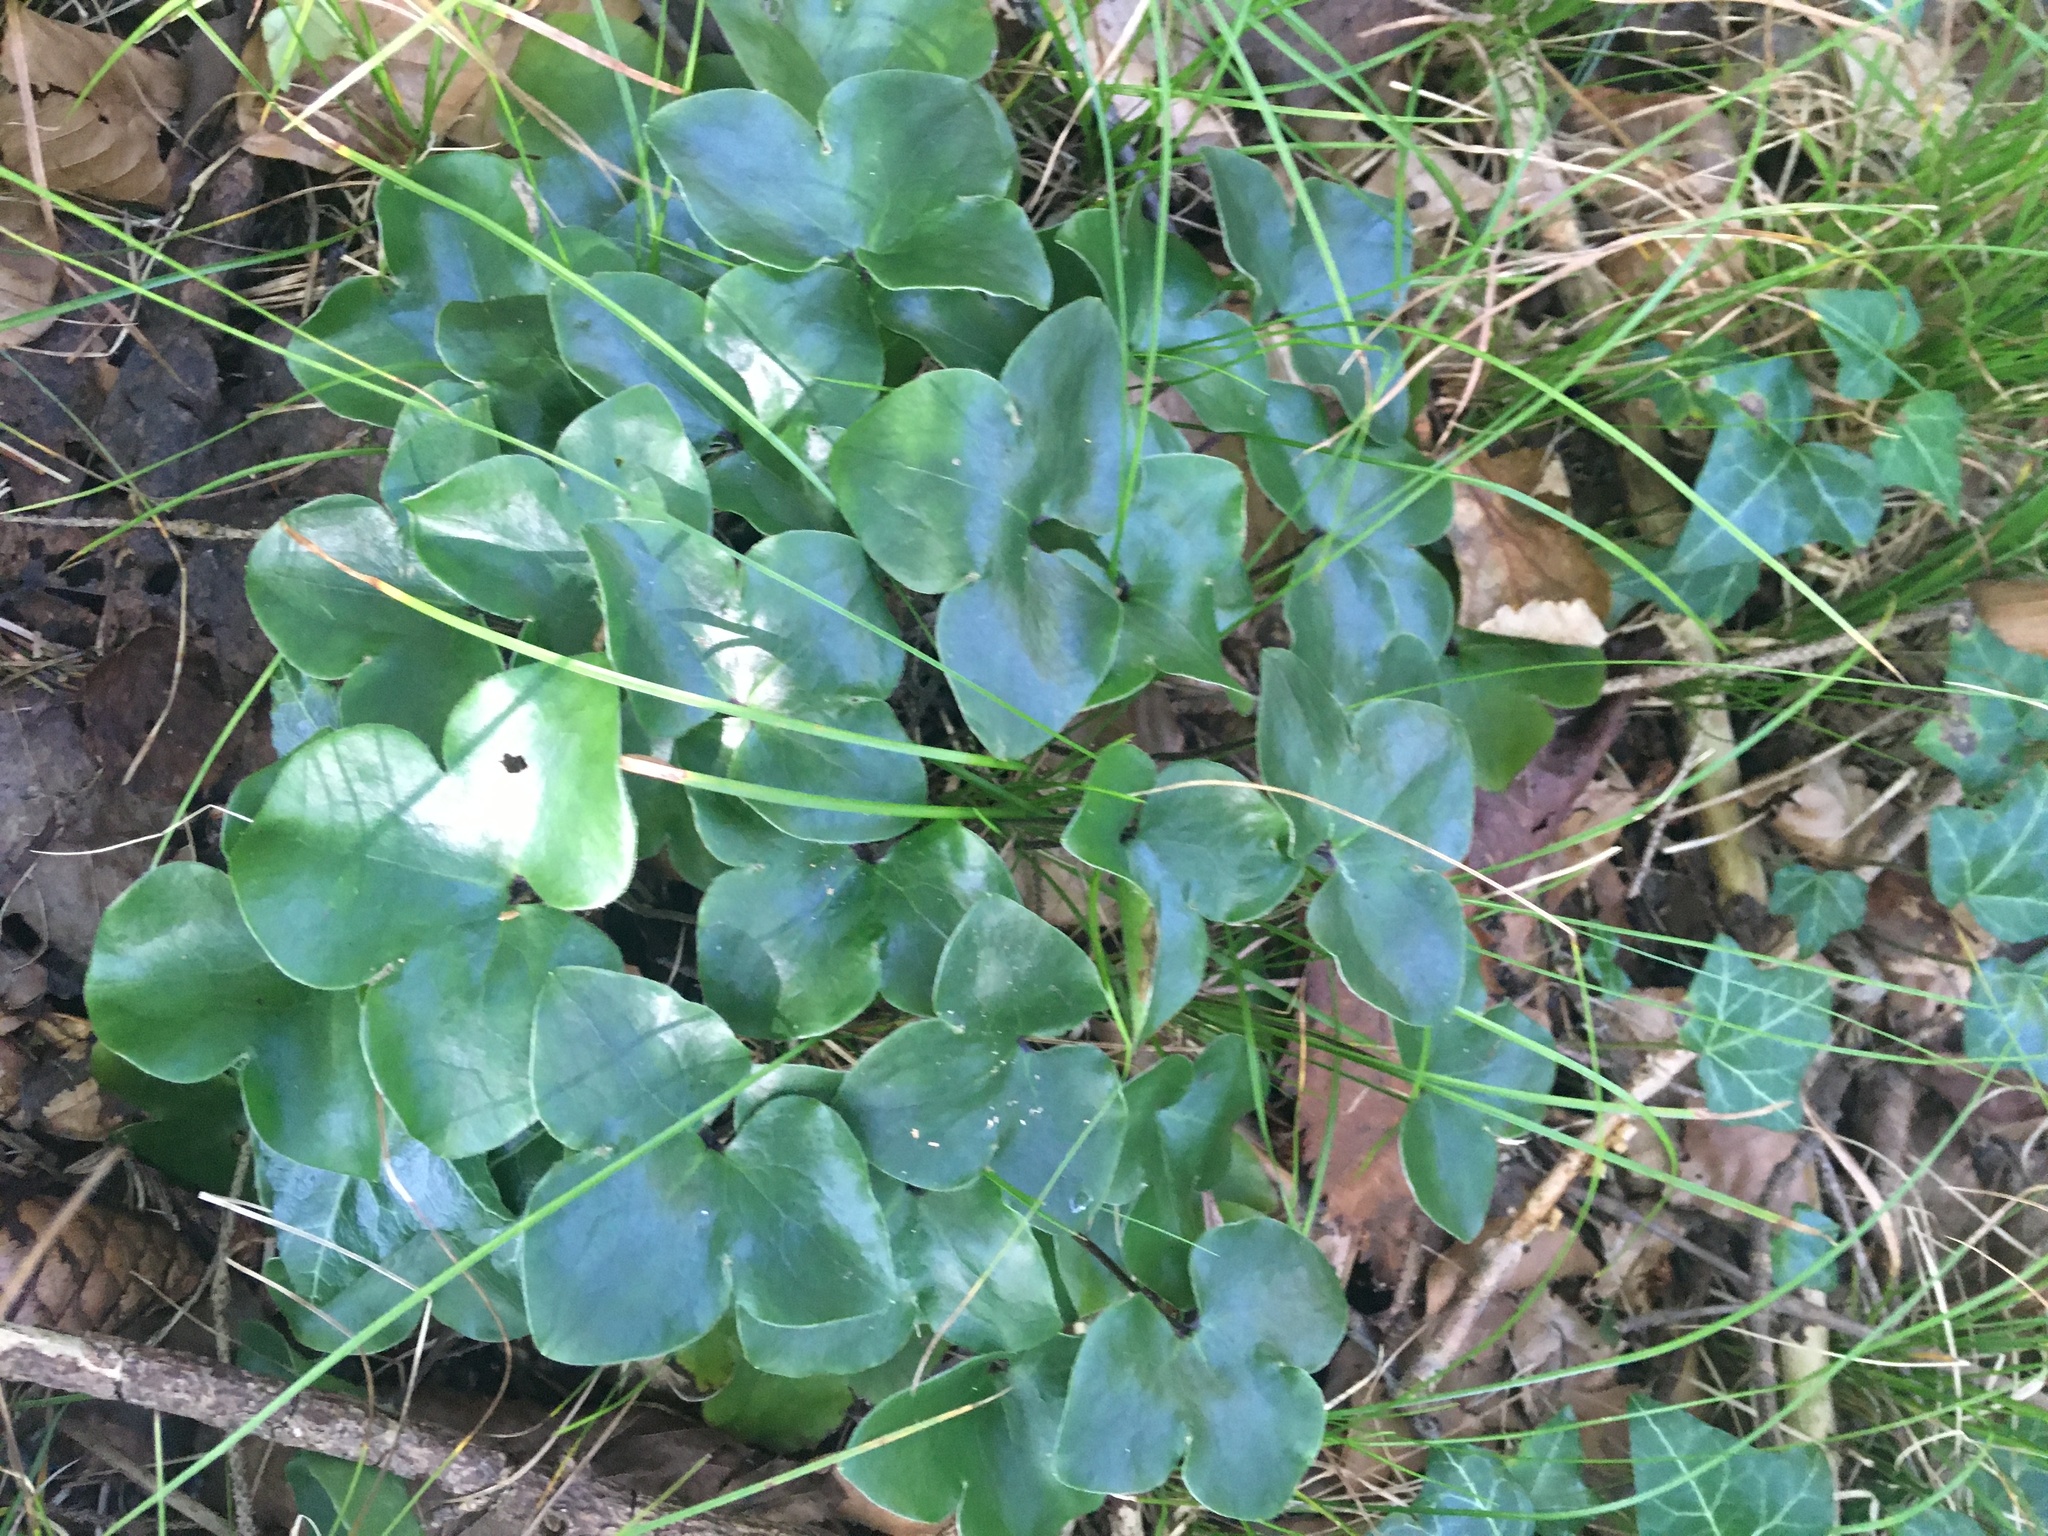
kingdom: Plantae
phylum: Tracheophyta
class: Magnoliopsida
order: Ranunculales
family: Ranunculaceae
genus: Hepatica
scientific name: Hepatica nobilis
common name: Liverleaf
